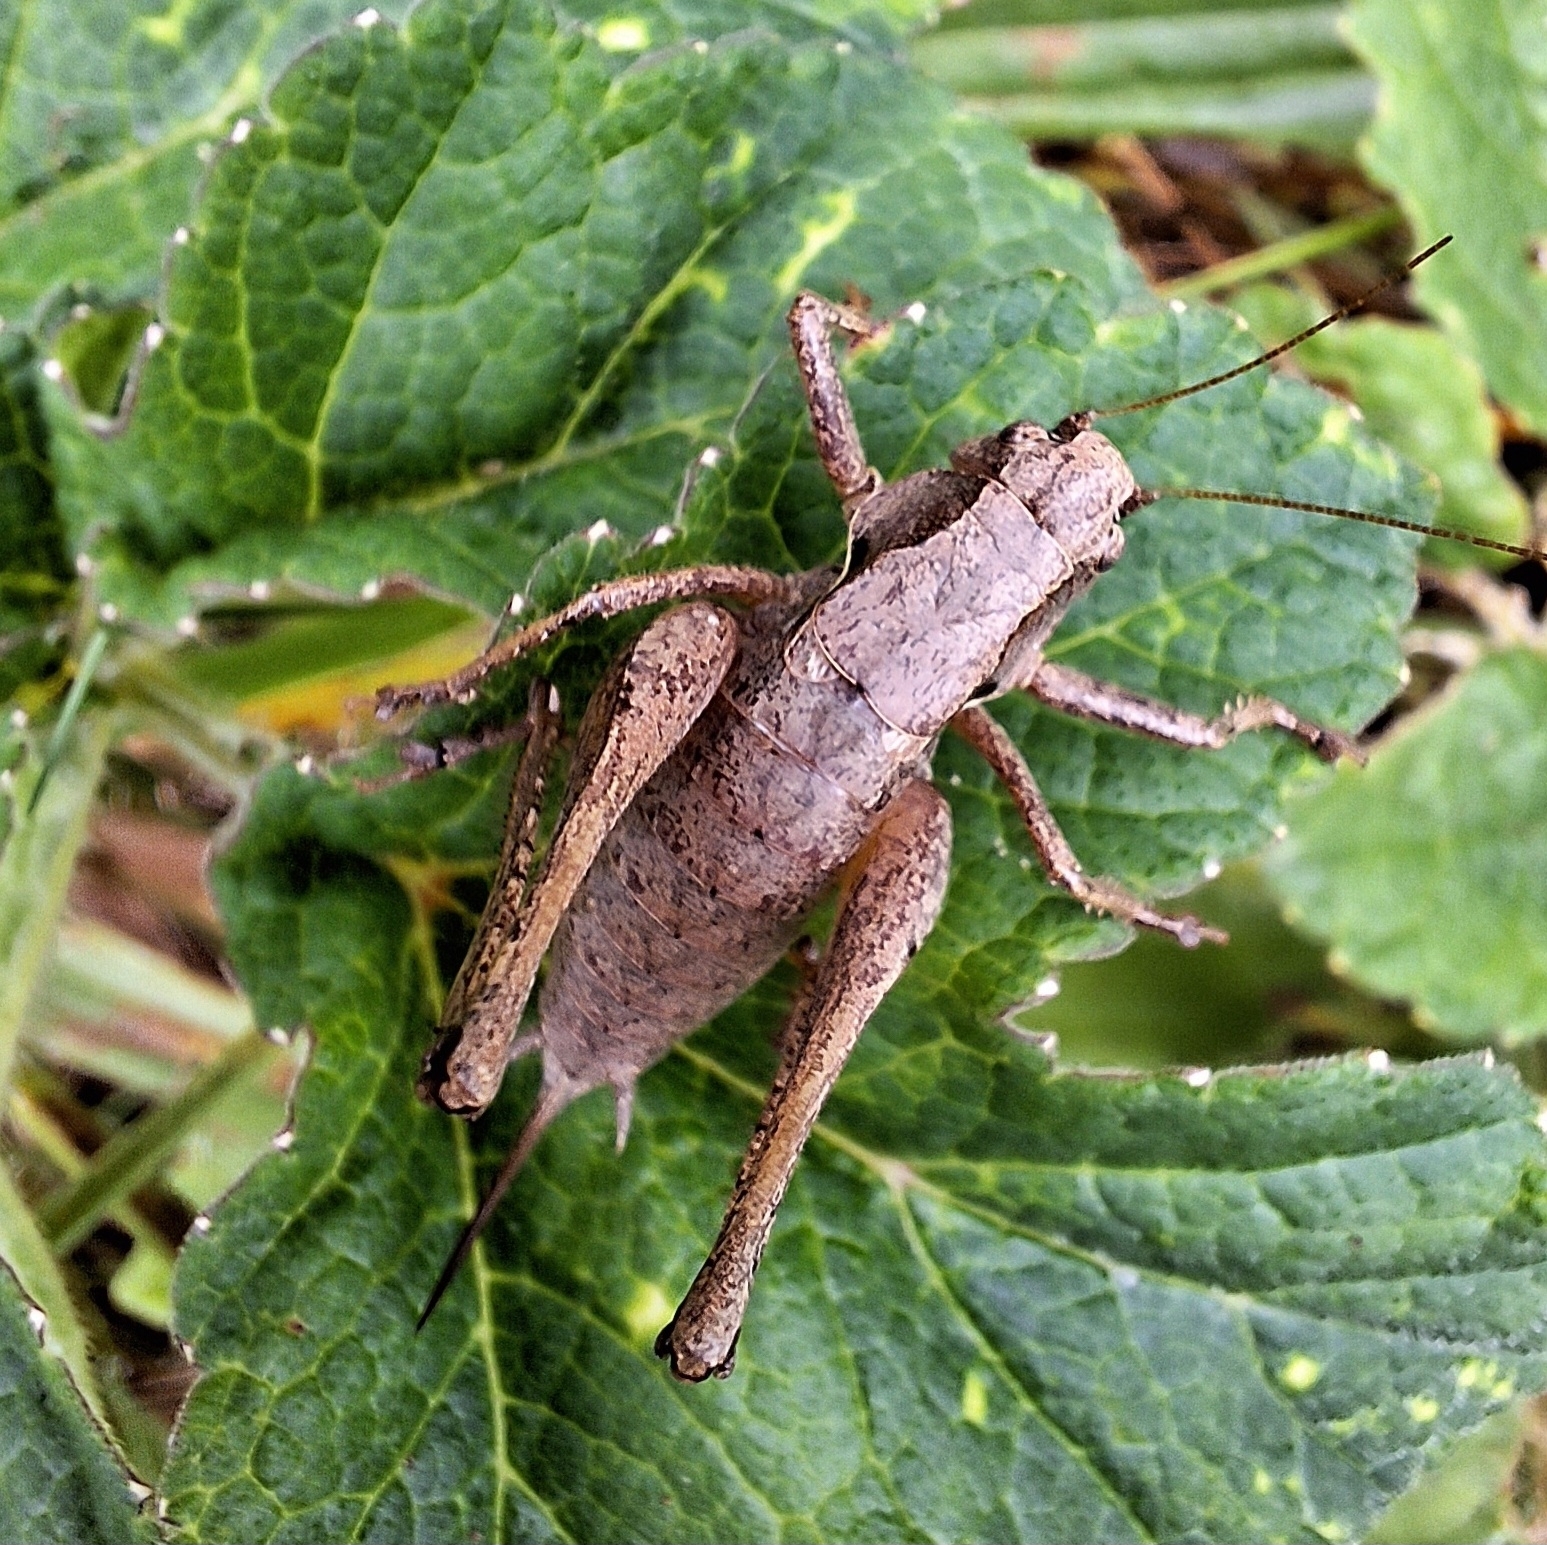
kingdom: Animalia
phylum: Arthropoda
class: Insecta
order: Orthoptera
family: Tettigoniidae
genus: Pholidoptera
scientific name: Pholidoptera griseoaptera
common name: Dark bush-cricket
